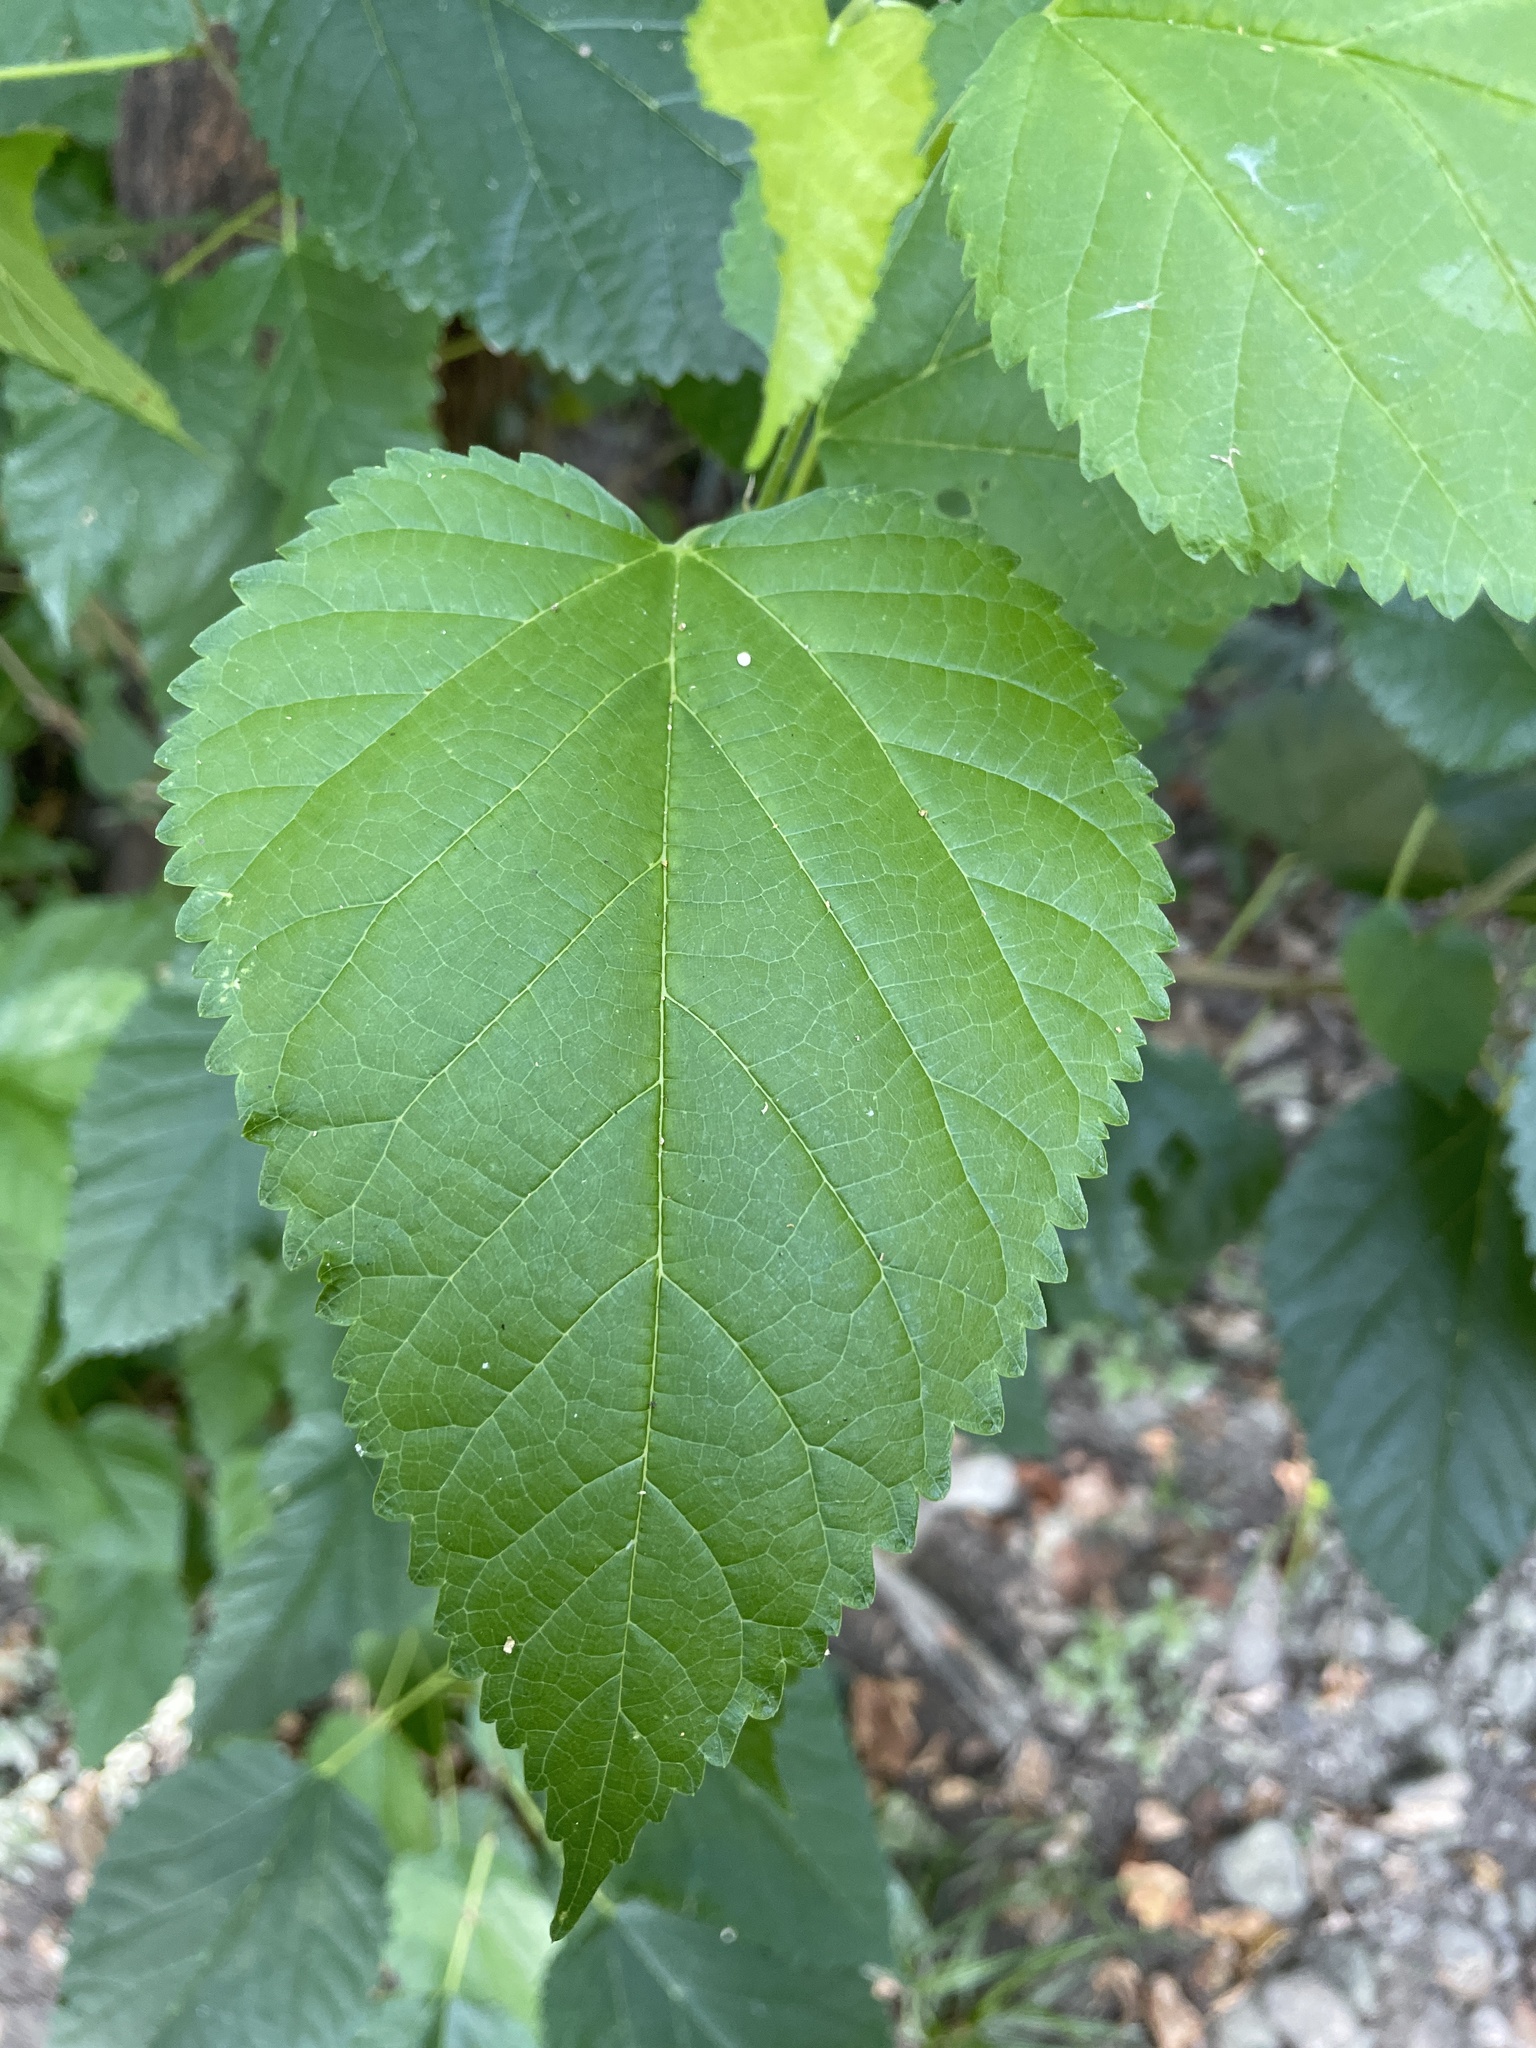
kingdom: Plantae
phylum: Tracheophyta
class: Magnoliopsida
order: Rosales
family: Moraceae
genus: Morus
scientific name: Morus alba
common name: White mulberry
